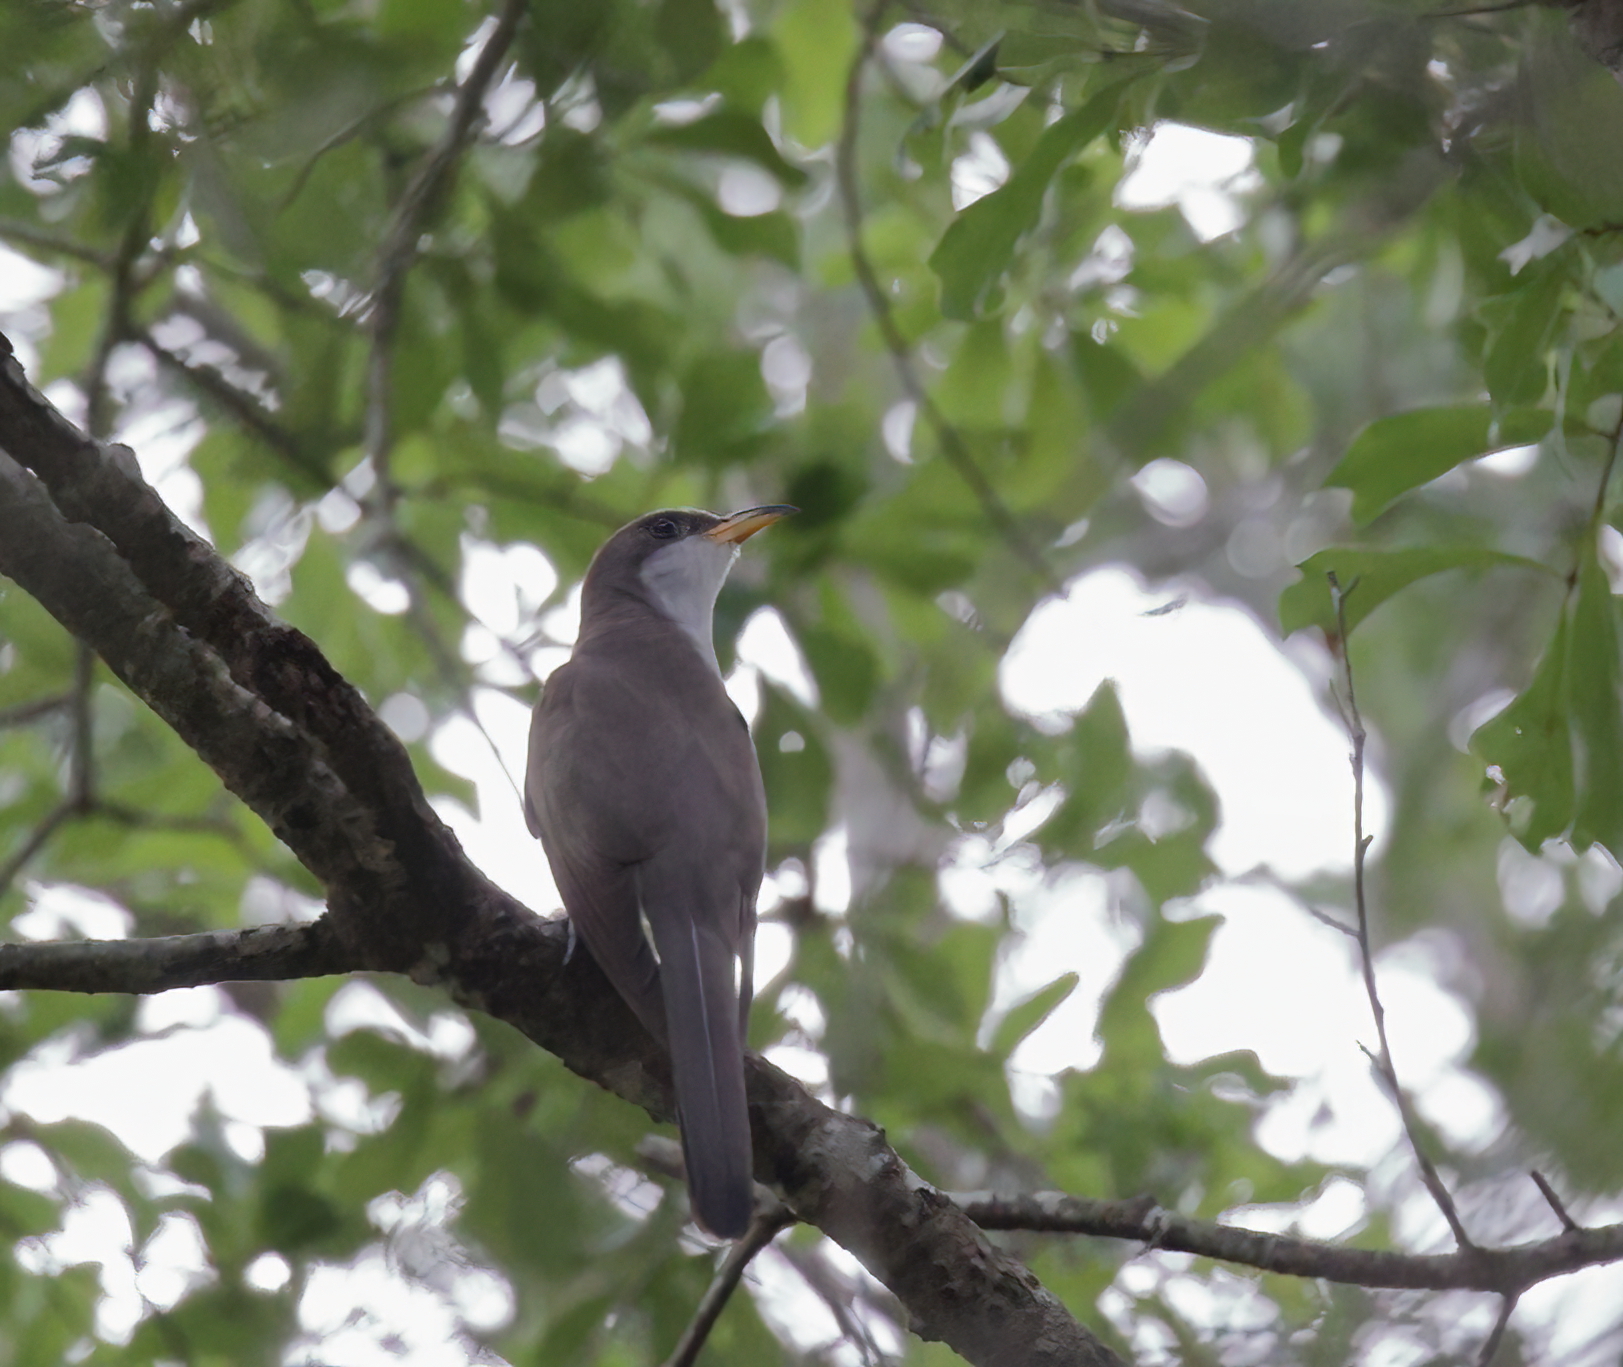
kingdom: Animalia
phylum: Chordata
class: Aves
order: Cuculiformes
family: Cuculidae
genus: Coccyzus
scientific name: Coccyzus americanus
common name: Yellow-billed cuckoo
